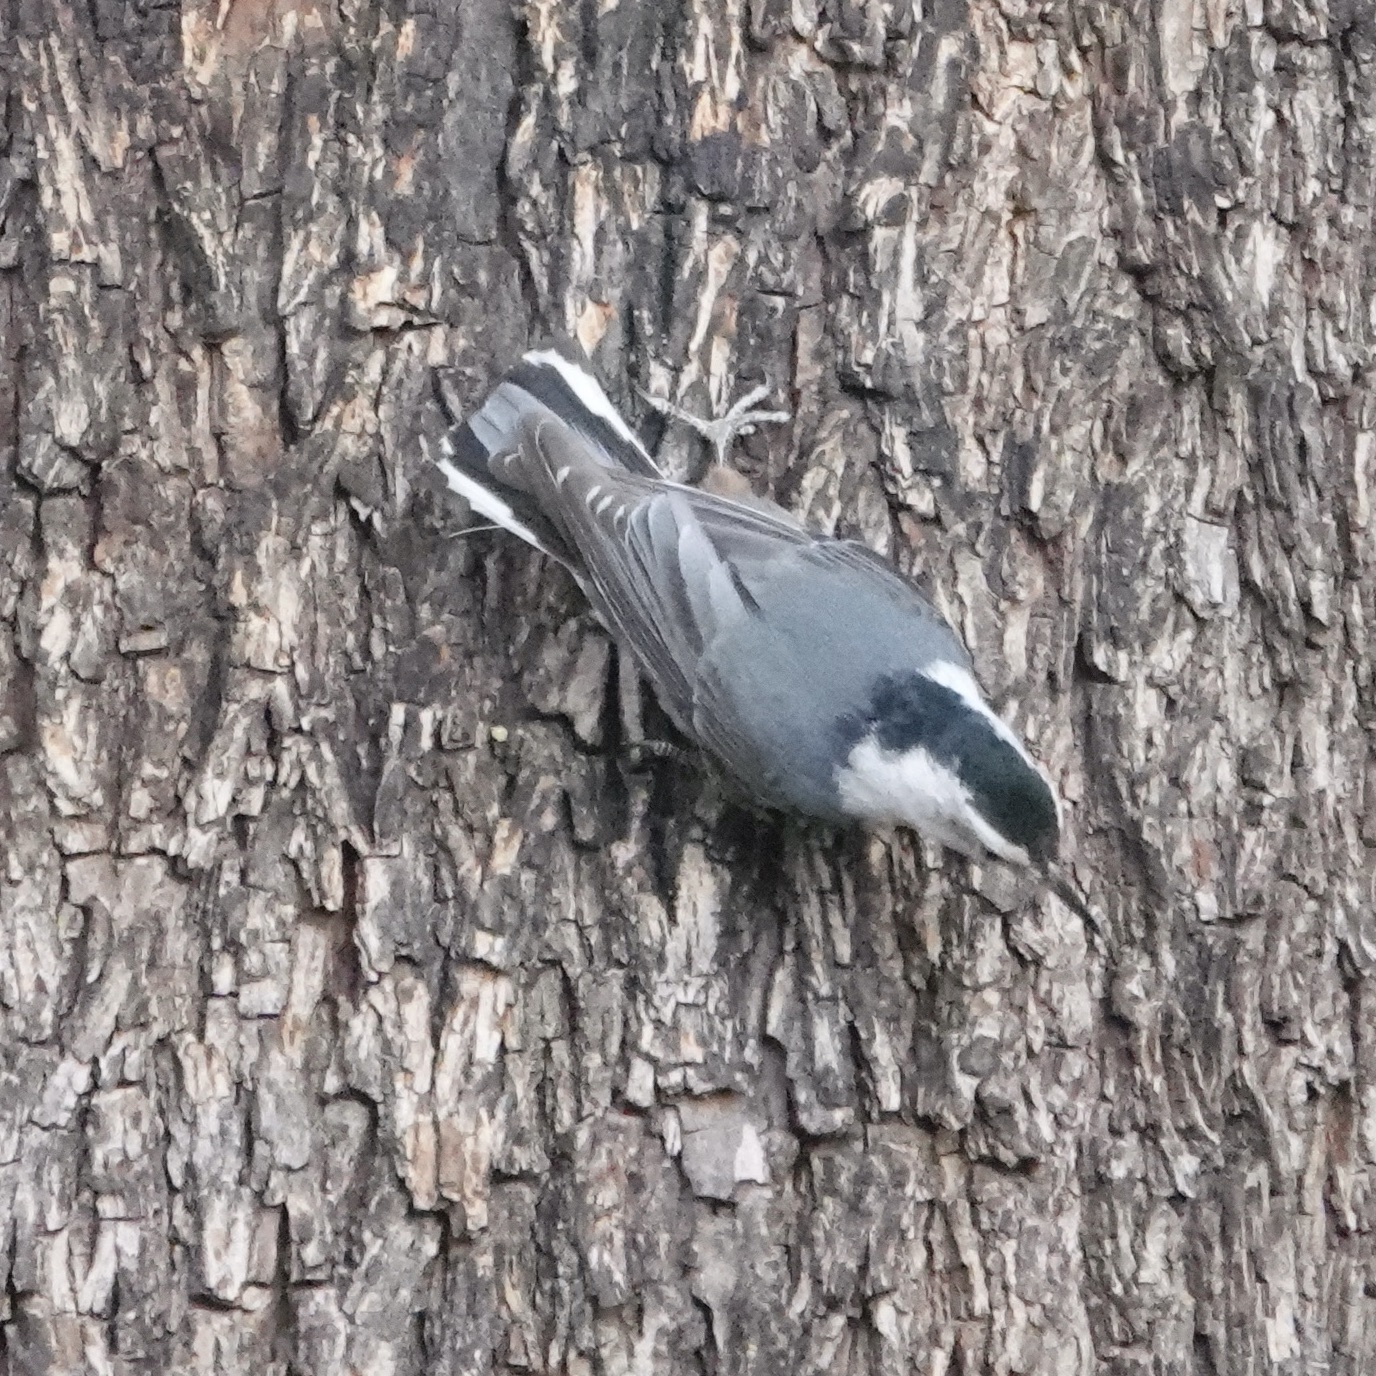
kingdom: Animalia
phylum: Chordata
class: Aves
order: Passeriformes
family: Sittidae
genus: Sitta
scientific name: Sitta carolinensis
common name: White-breasted nuthatch
